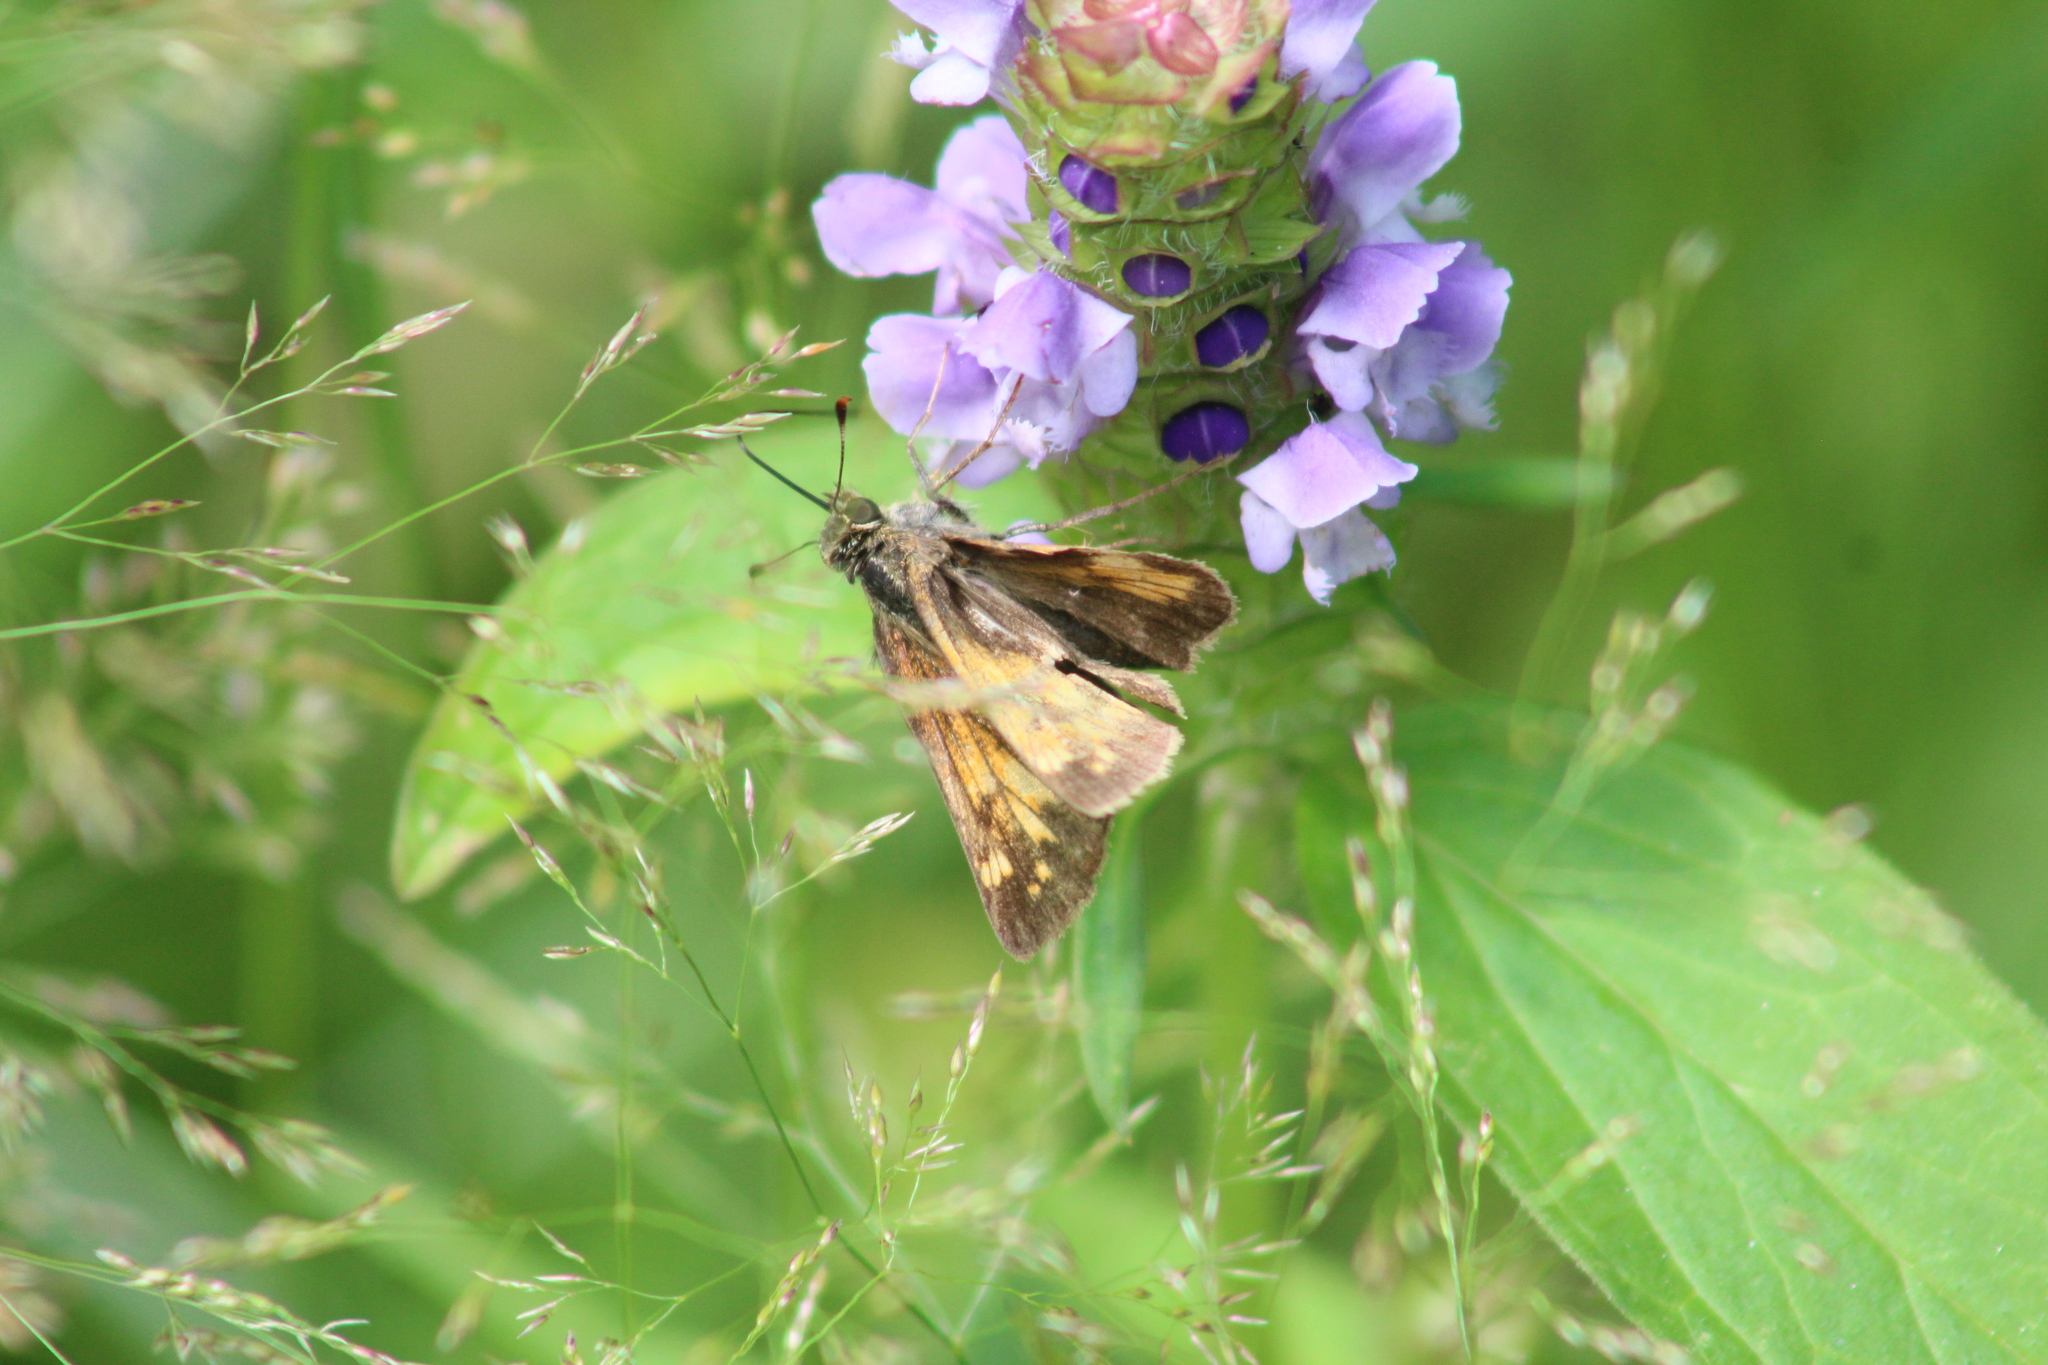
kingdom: Animalia
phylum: Arthropoda
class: Insecta
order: Lepidoptera
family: Hesperiidae
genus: Lon
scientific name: Lon hobomok
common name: Hobomok skipper
